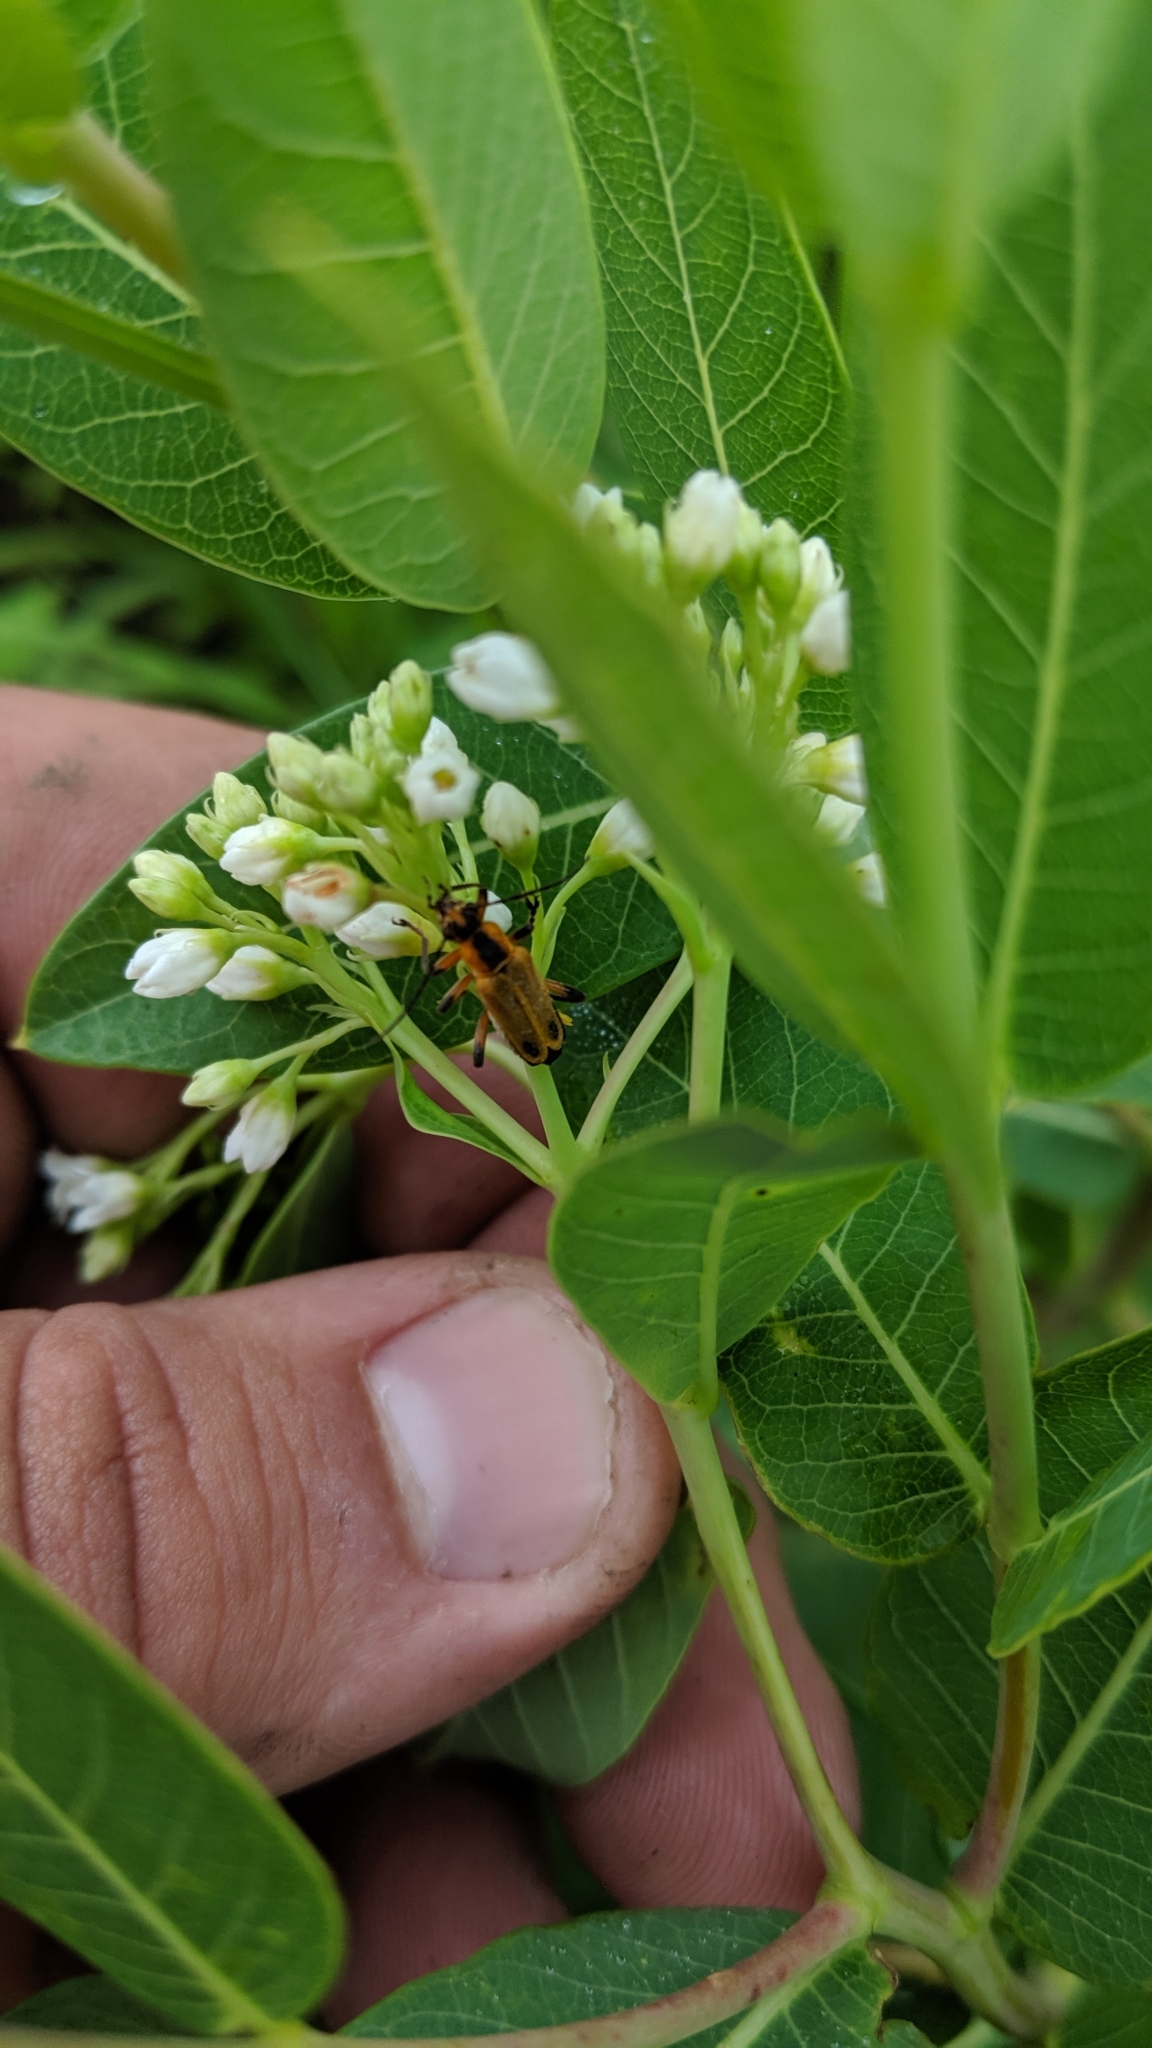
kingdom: Animalia
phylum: Arthropoda
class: Insecta
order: Coleoptera
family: Cantharidae
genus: Chauliognathus
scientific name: Chauliognathus marginatus
